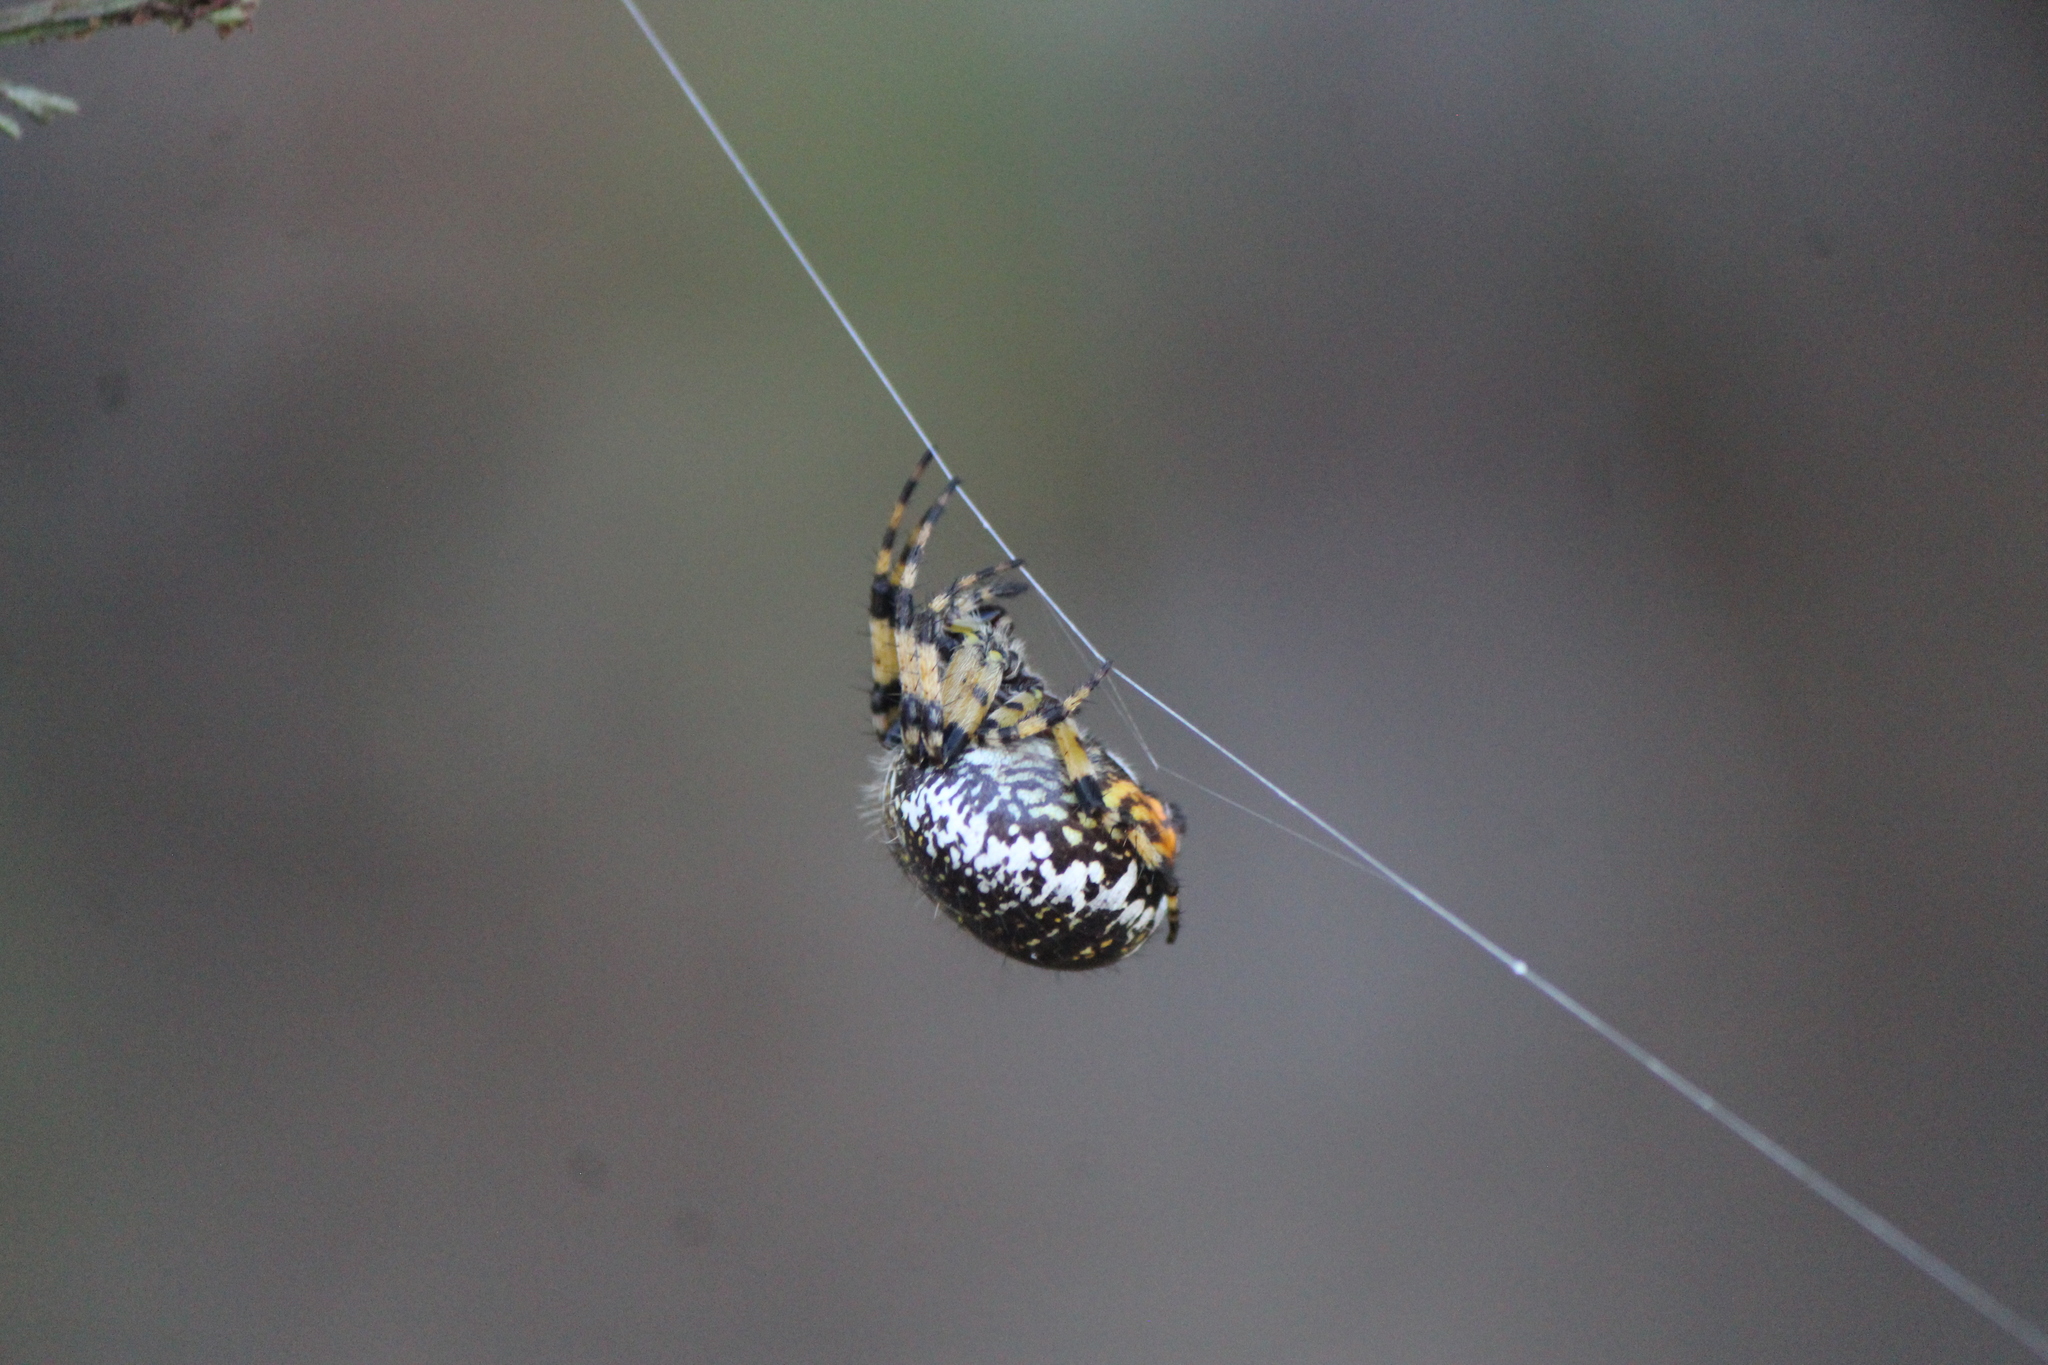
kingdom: Animalia
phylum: Arthropoda
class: Arachnida
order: Araneae
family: Araneidae
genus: Neoscona
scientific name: Neoscona orizabensis
